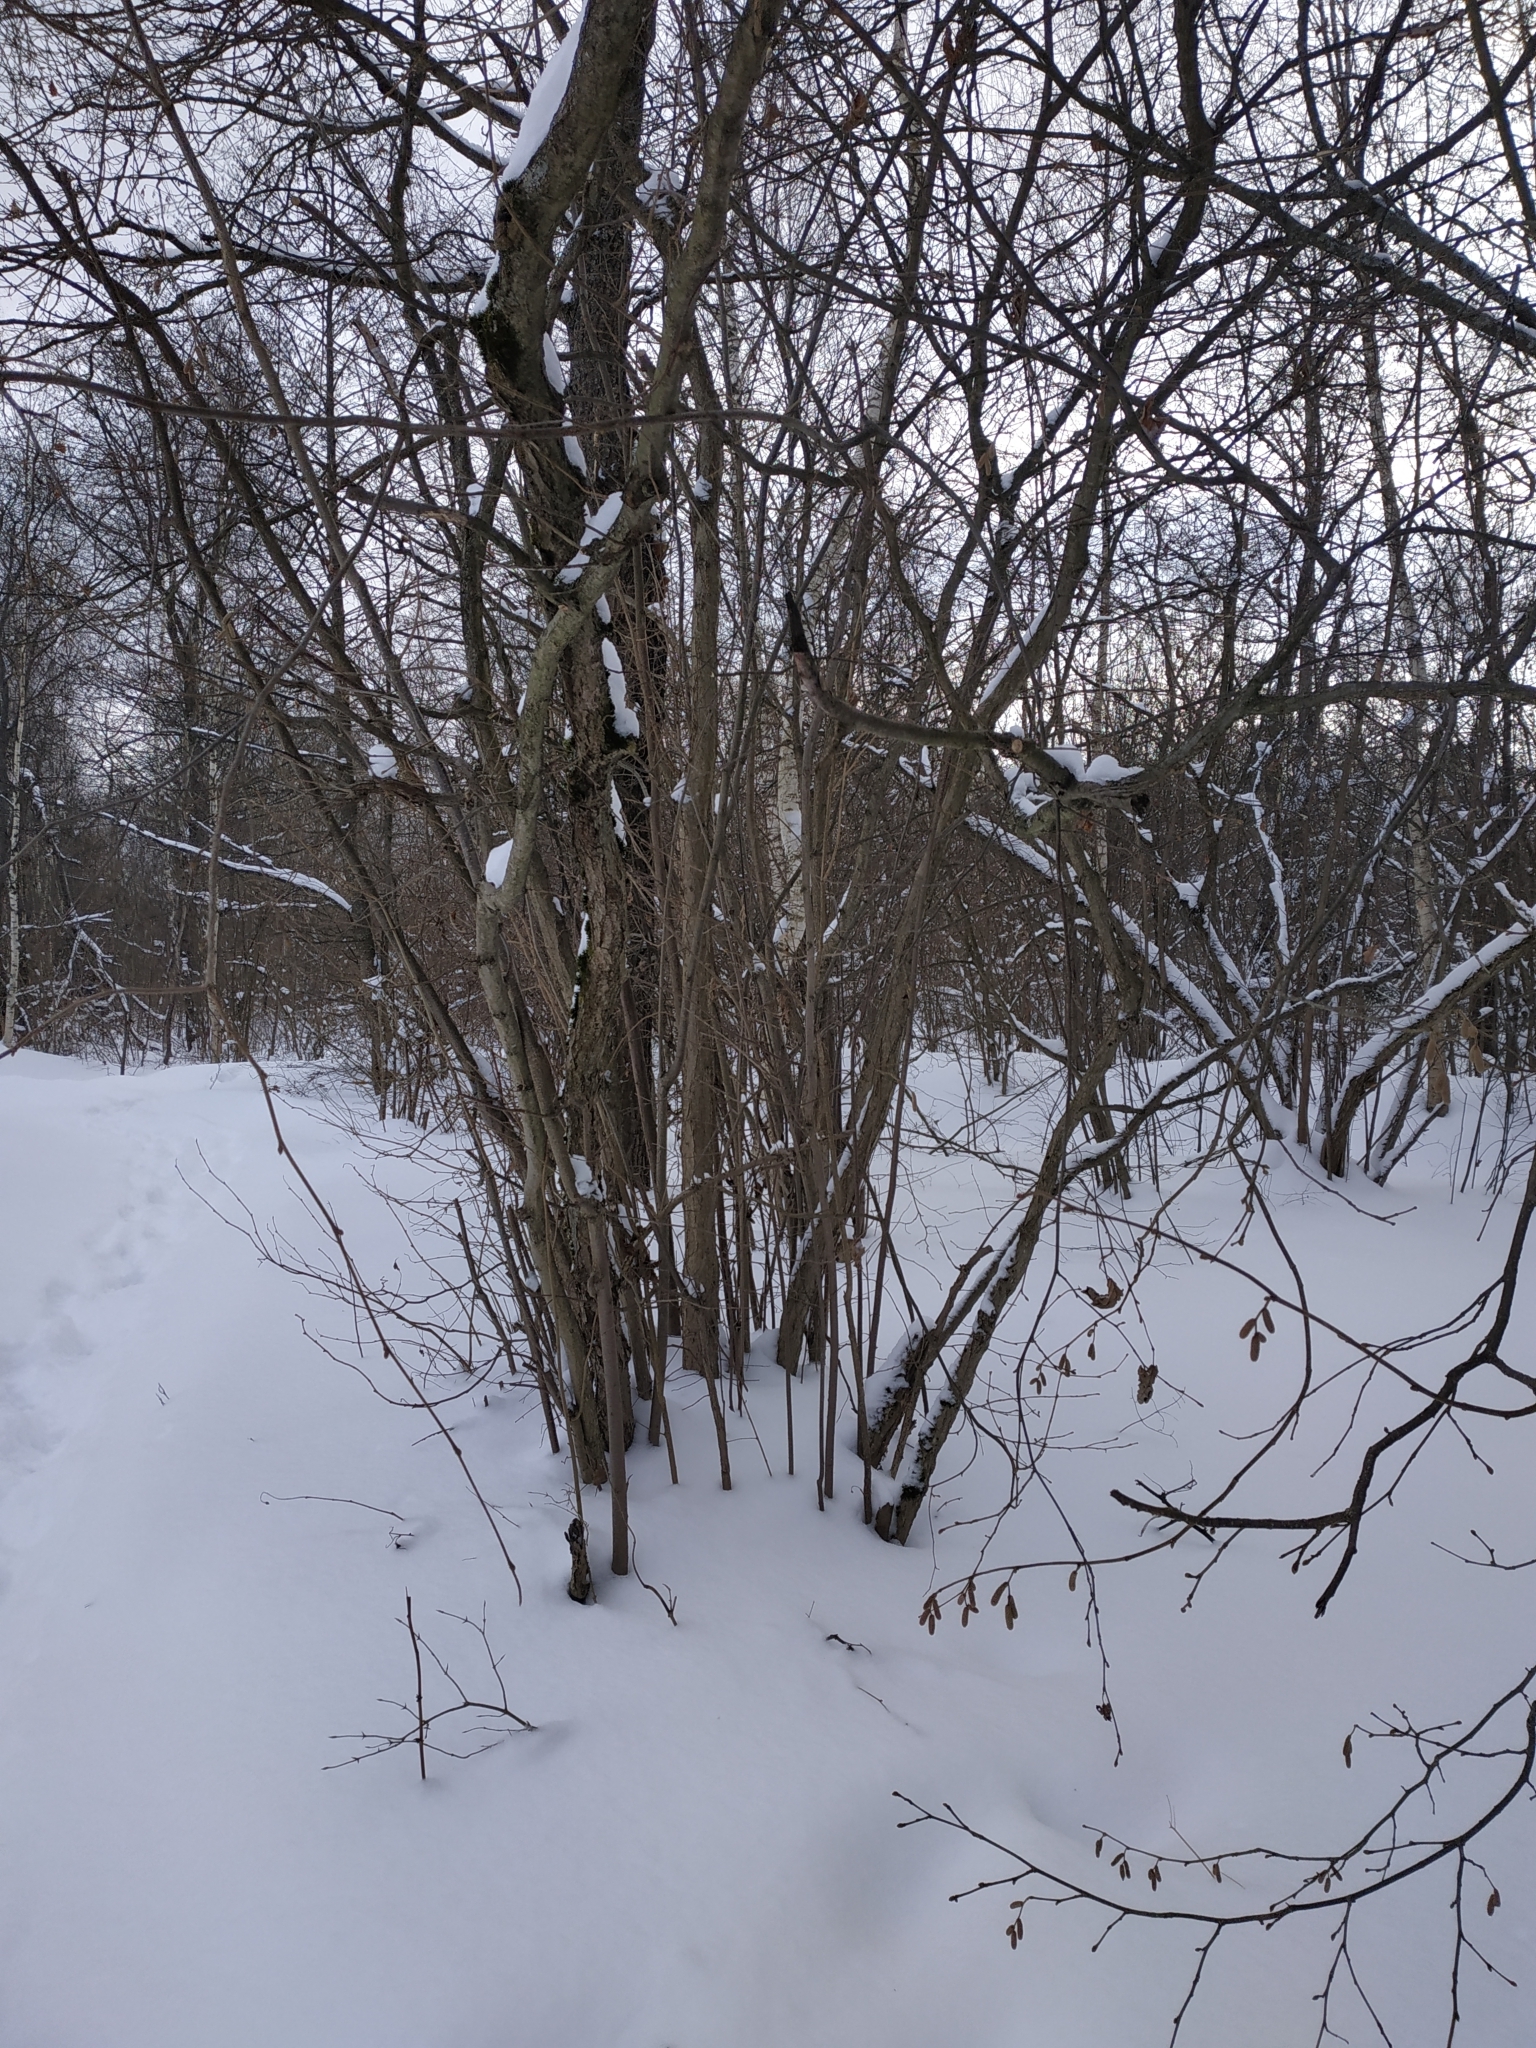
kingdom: Plantae
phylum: Tracheophyta
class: Magnoliopsida
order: Fagales
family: Betulaceae
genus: Corylus
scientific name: Corylus avellana
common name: European hazel
